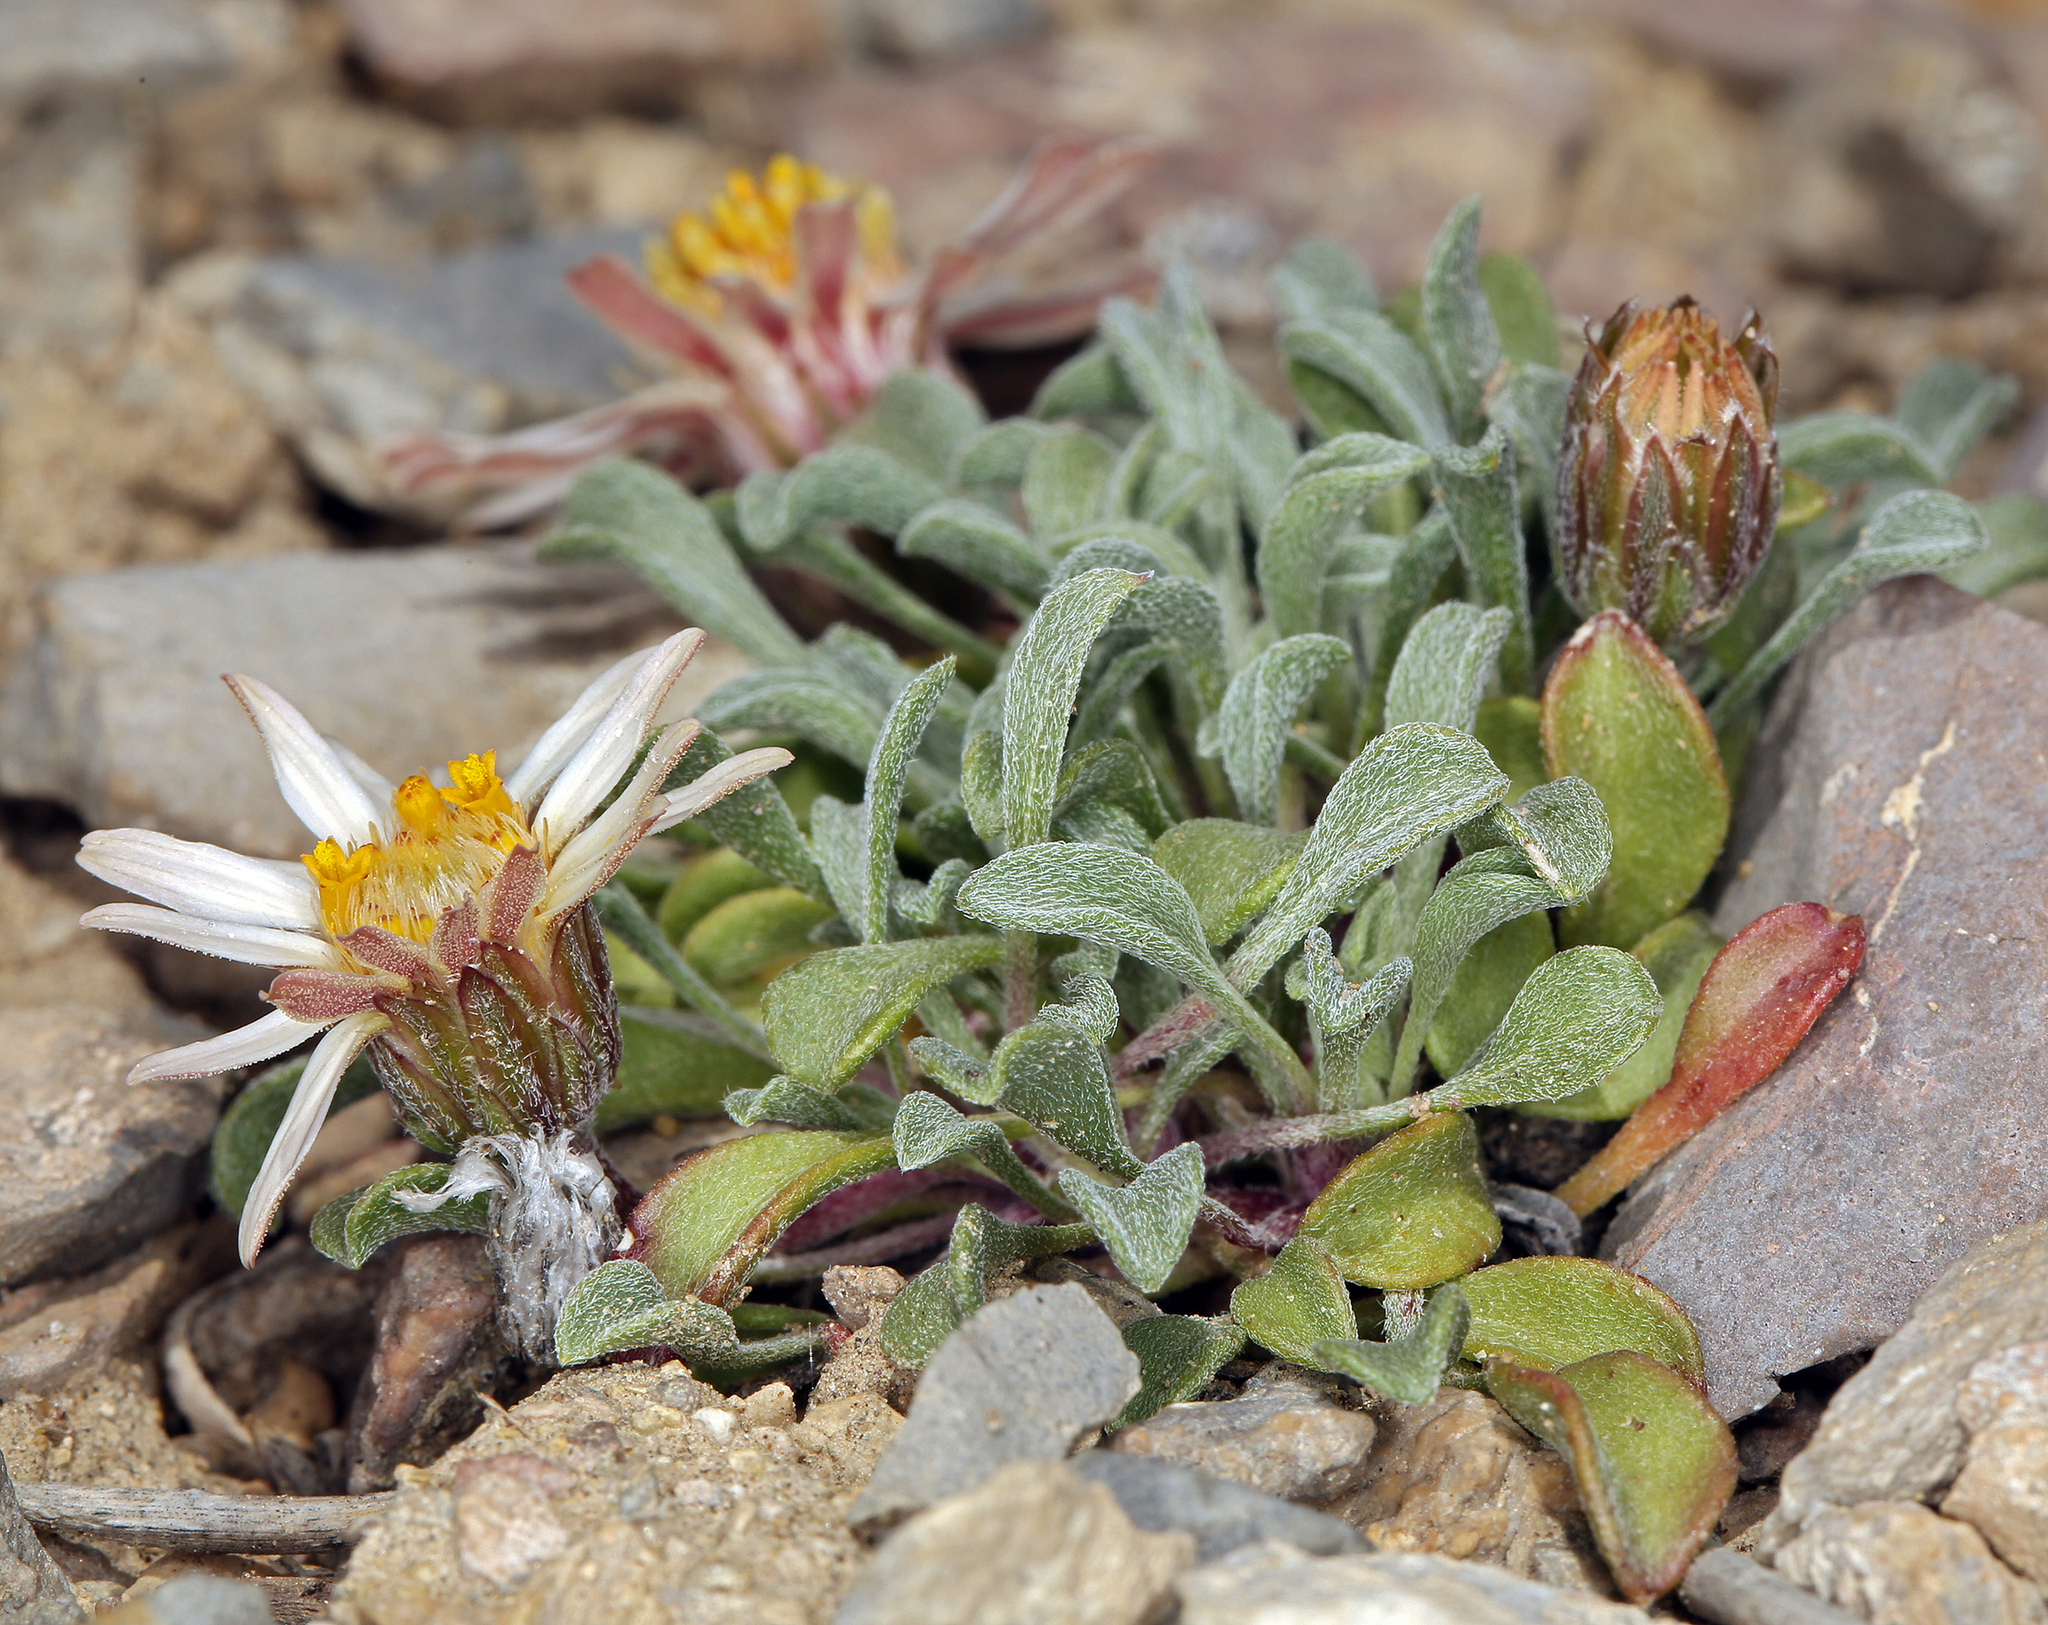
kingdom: Plantae
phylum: Tracheophyta
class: Magnoliopsida
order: Asterales
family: Asteraceae
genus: Townsendia
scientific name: Townsendia scapigera
